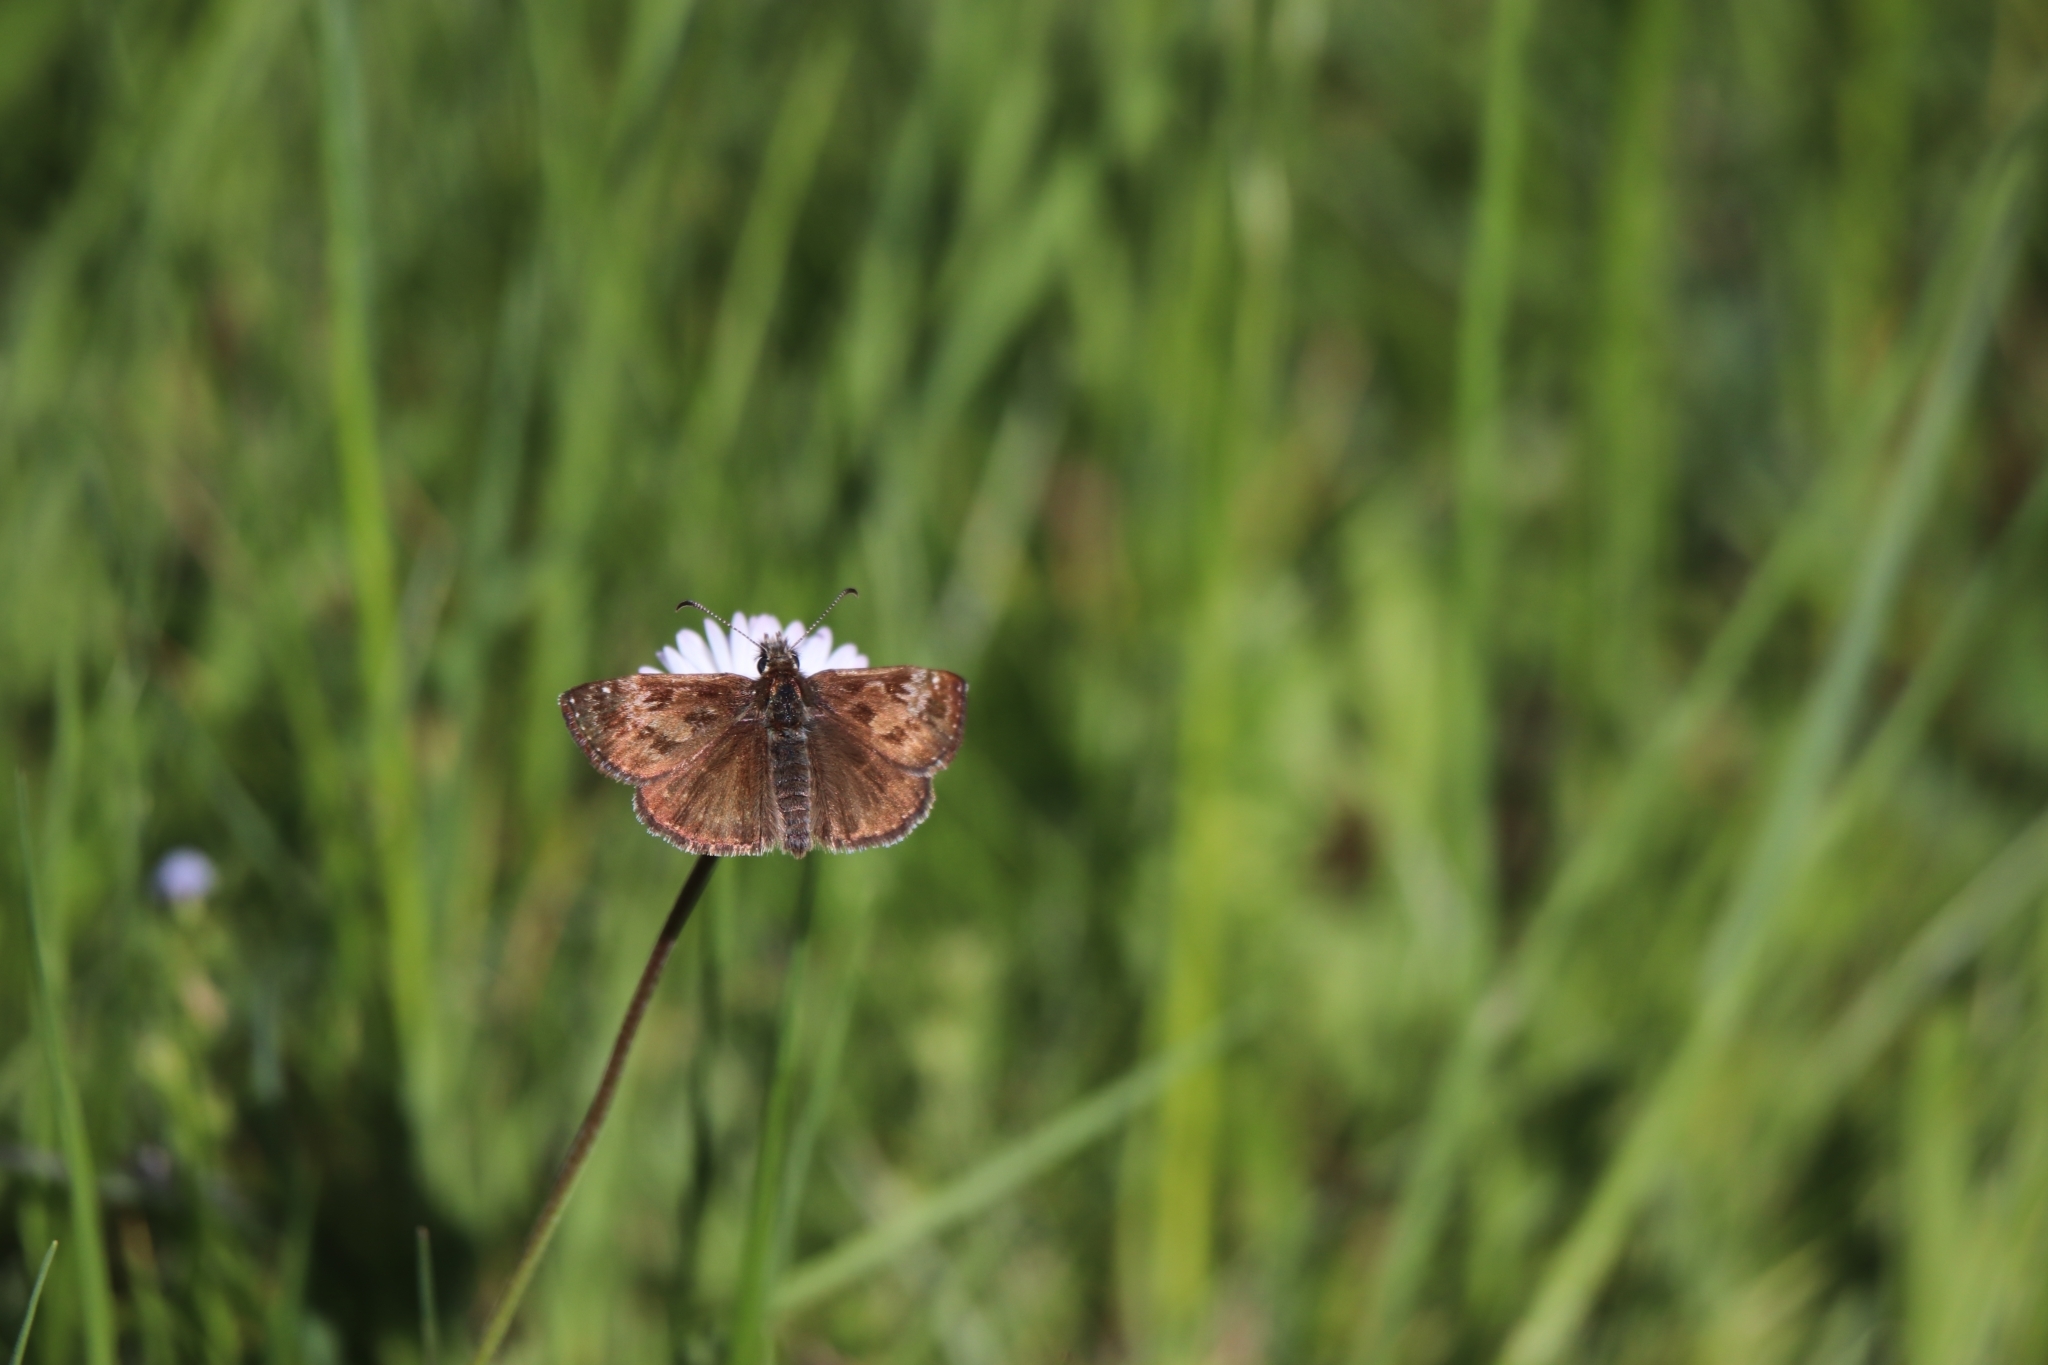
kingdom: Animalia
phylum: Arthropoda
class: Insecta
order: Lepidoptera
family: Hesperiidae
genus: Erynnis
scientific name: Erynnis tages
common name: Dingy skipper
